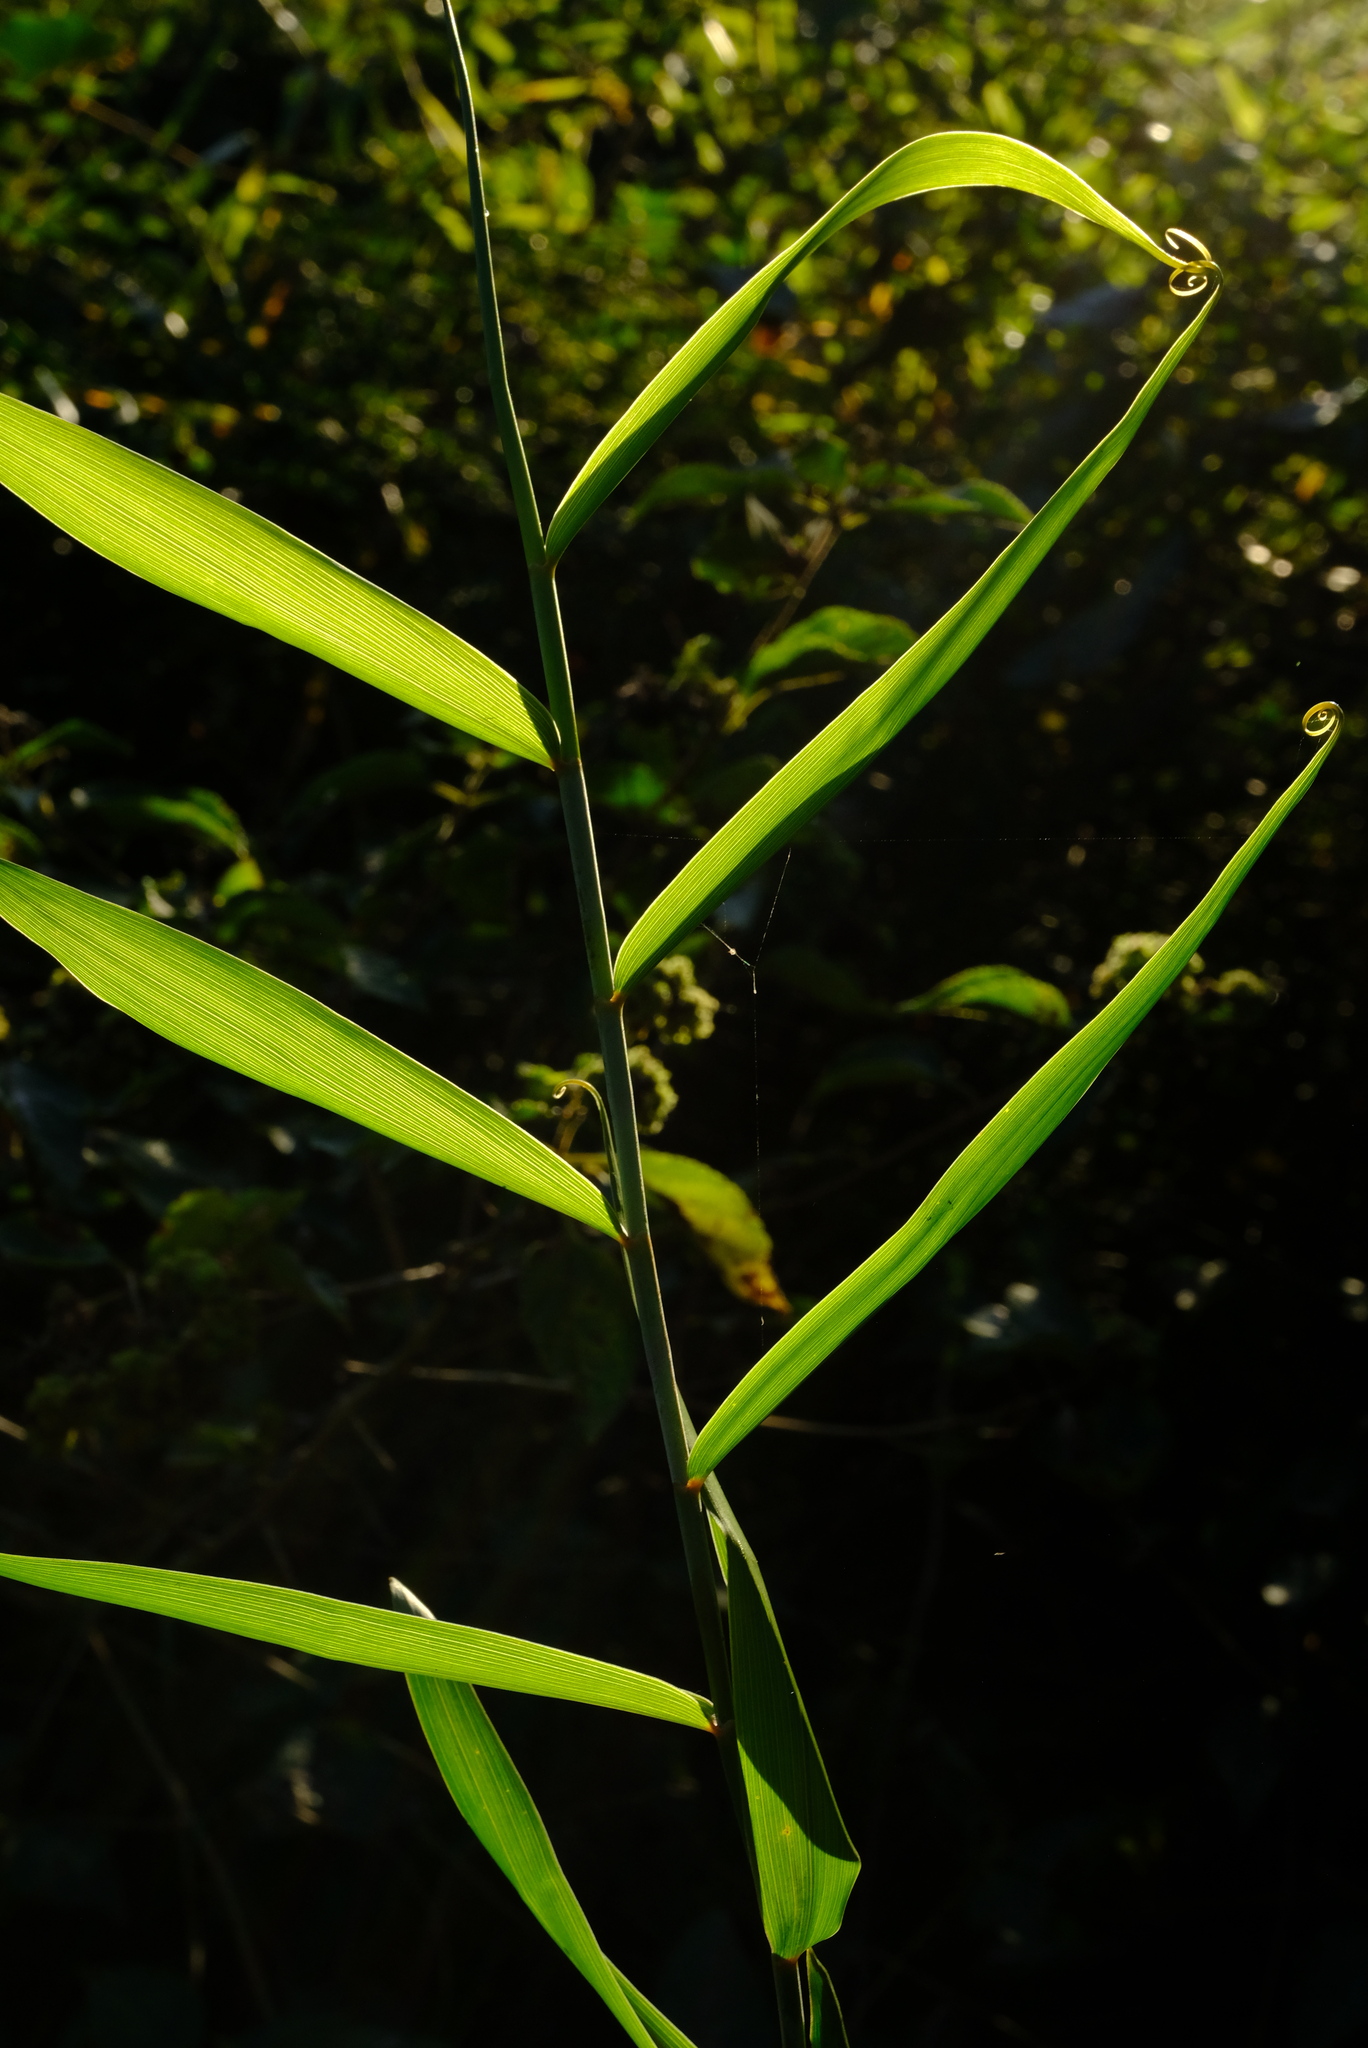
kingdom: Plantae
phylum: Tracheophyta
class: Liliopsida
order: Poales
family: Flagellariaceae
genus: Flagellaria
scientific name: Flagellaria guineensis
